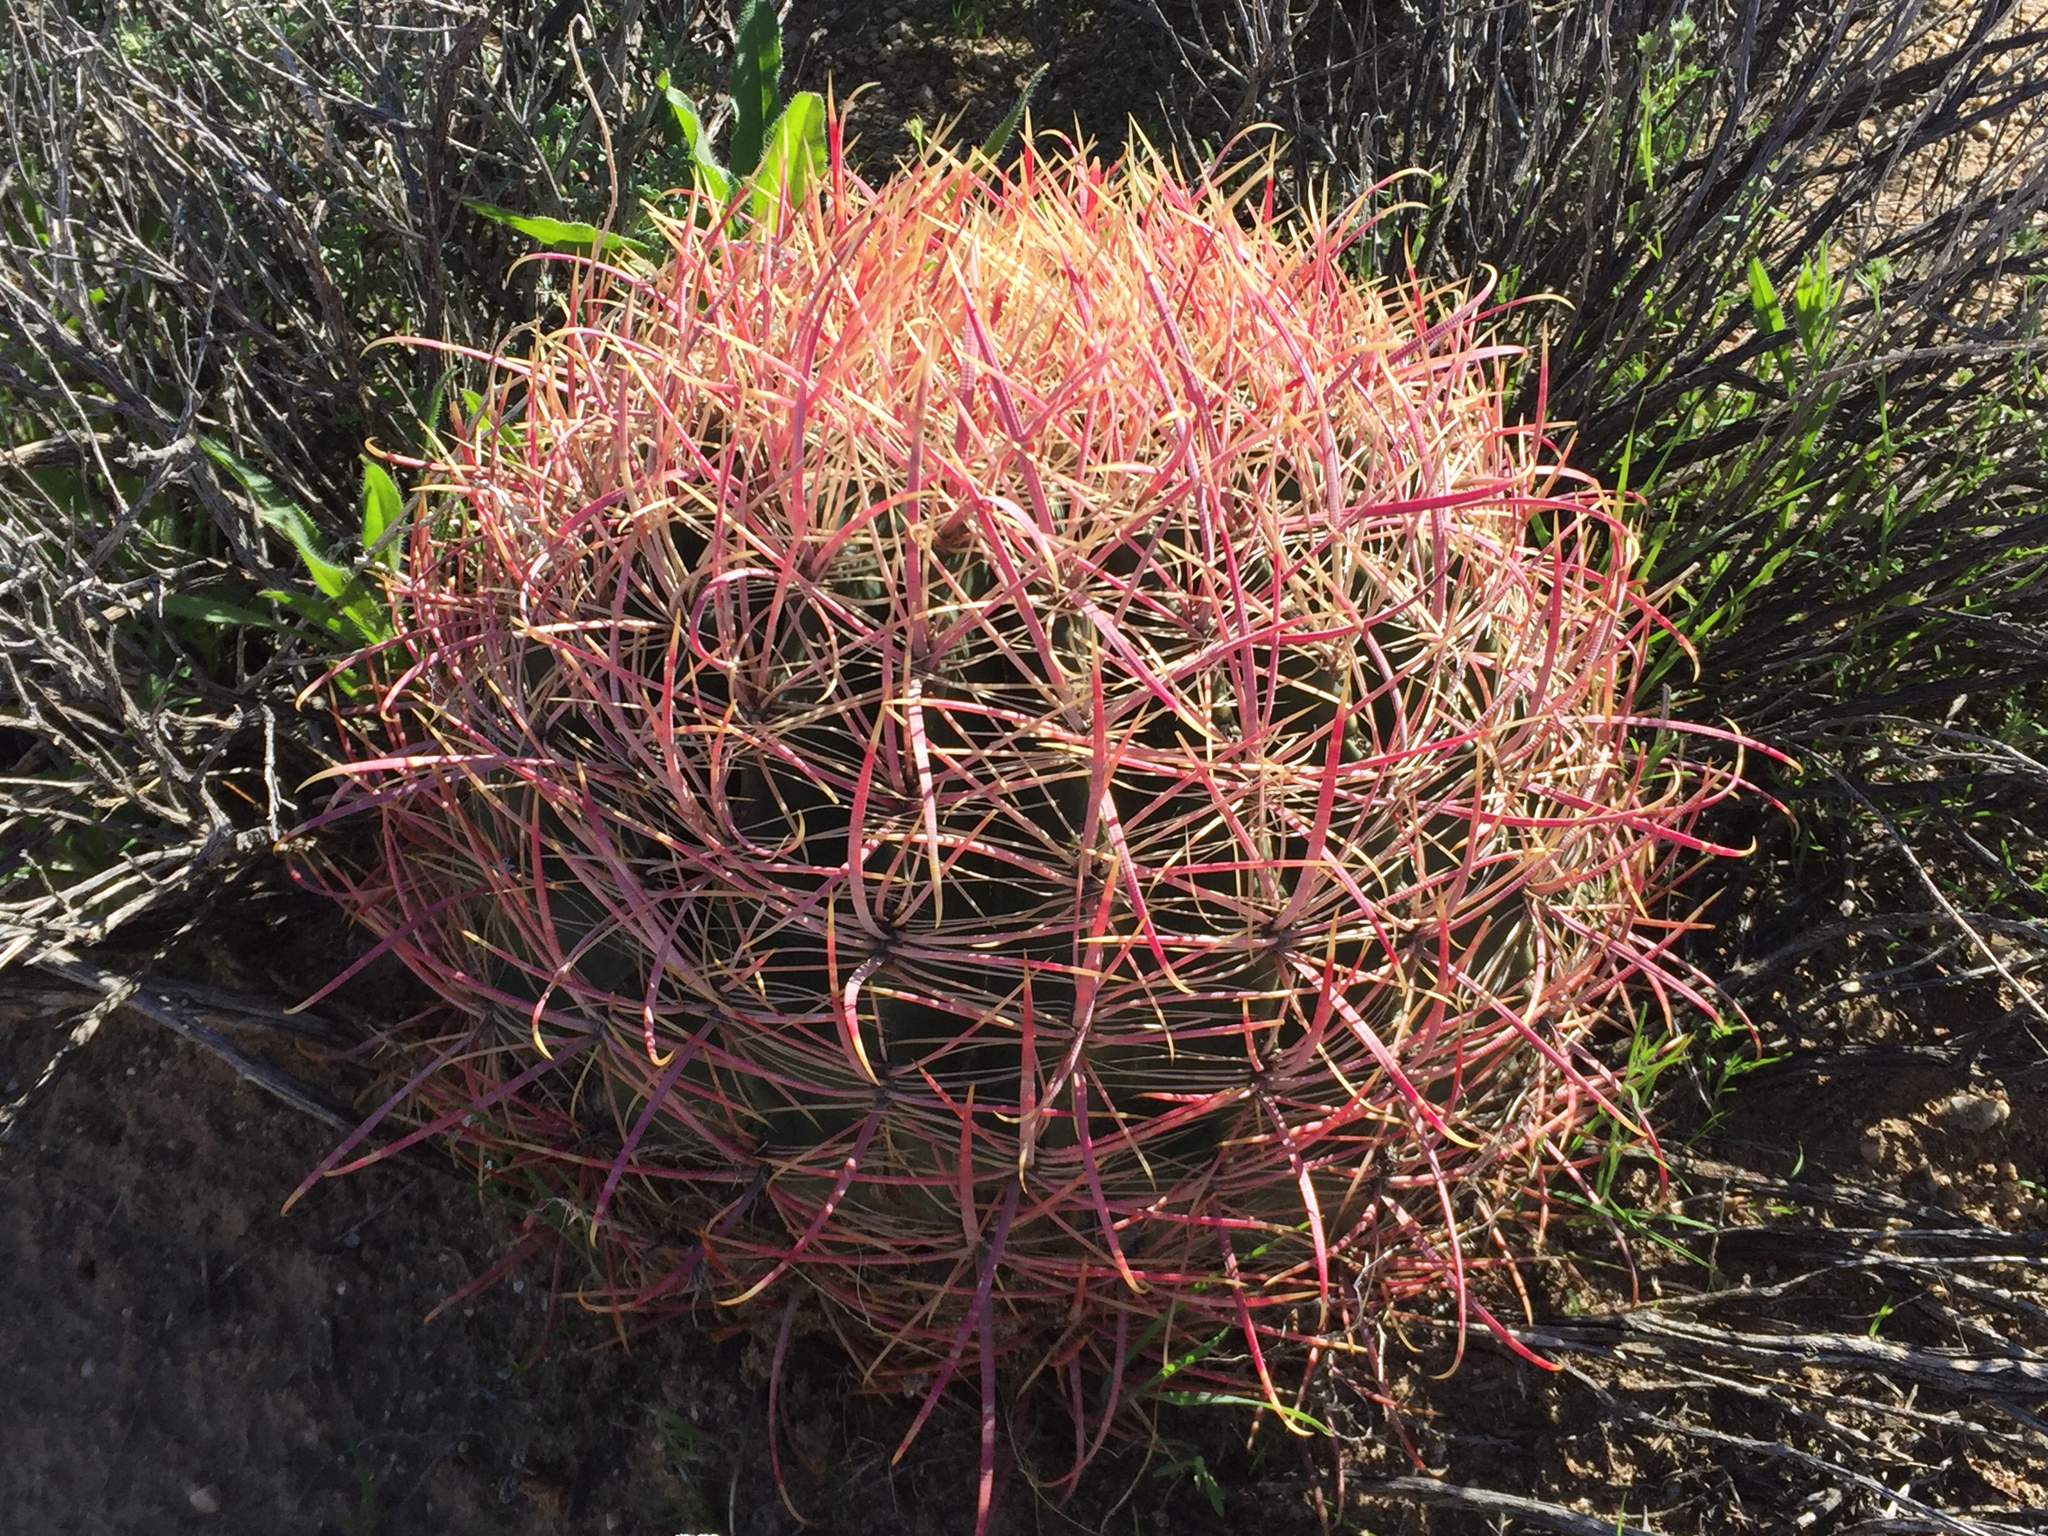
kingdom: Plantae
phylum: Tracheophyta
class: Magnoliopsida
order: Caryophyllales
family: Cactaceae
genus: Ferocactus
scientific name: Ferocactus cylindraceus
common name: California barrel cactus
